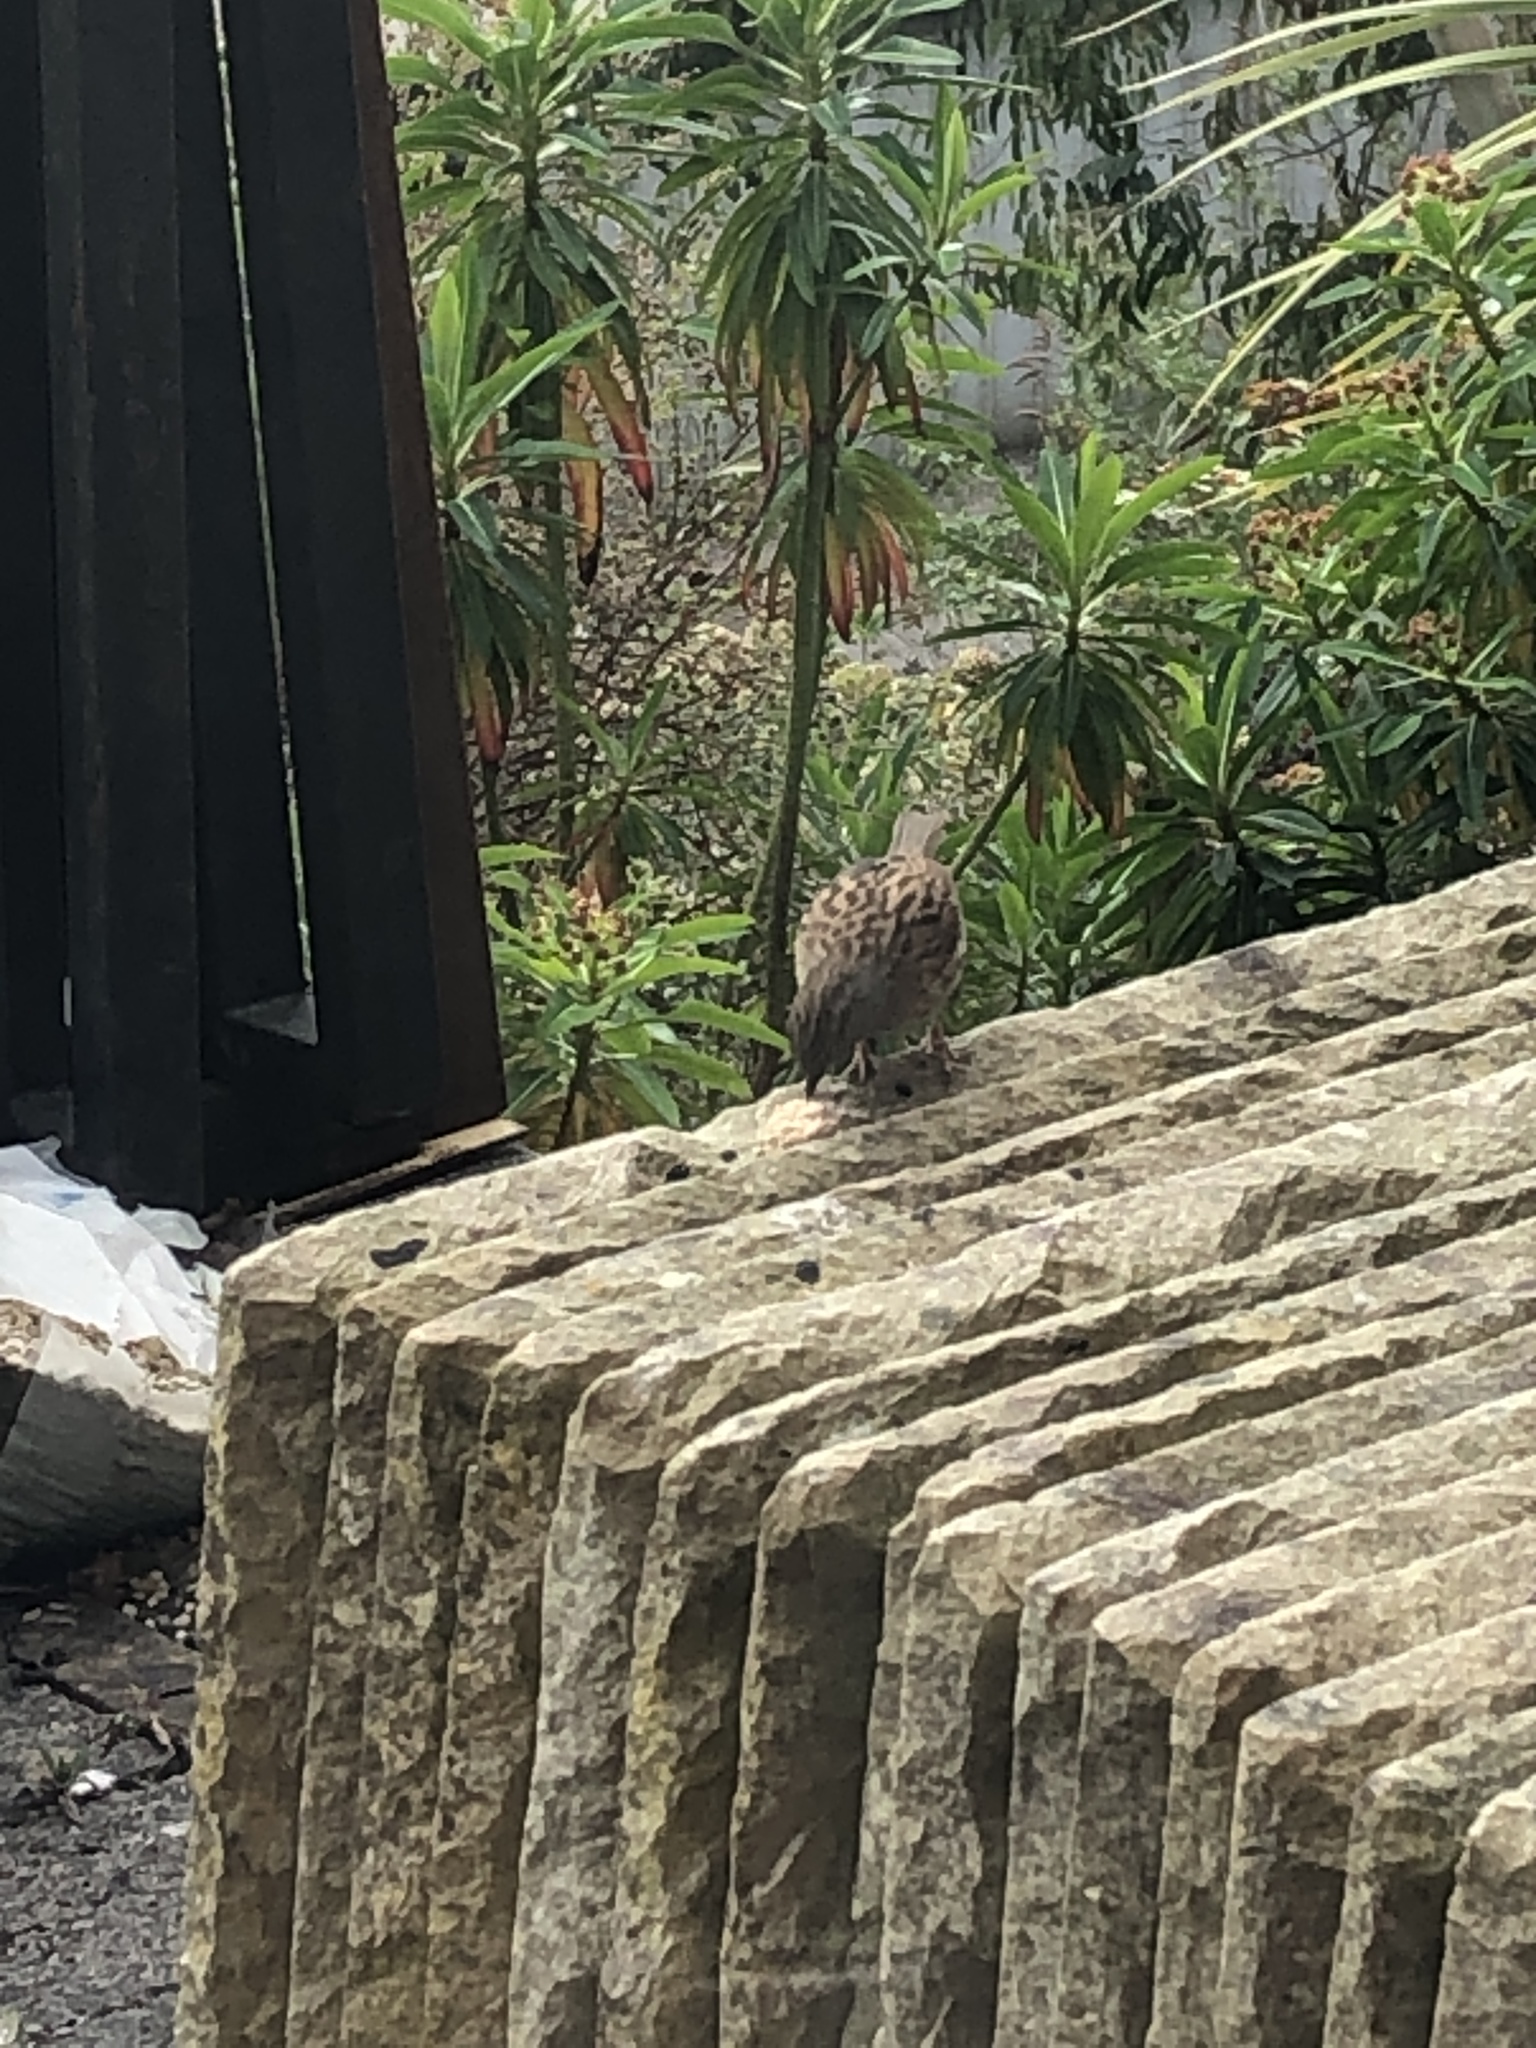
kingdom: Animalia
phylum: Chordata
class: Aves
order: Passeriformes
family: Prunellidae
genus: Prunella
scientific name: Prunella modularis
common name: Dunnock
